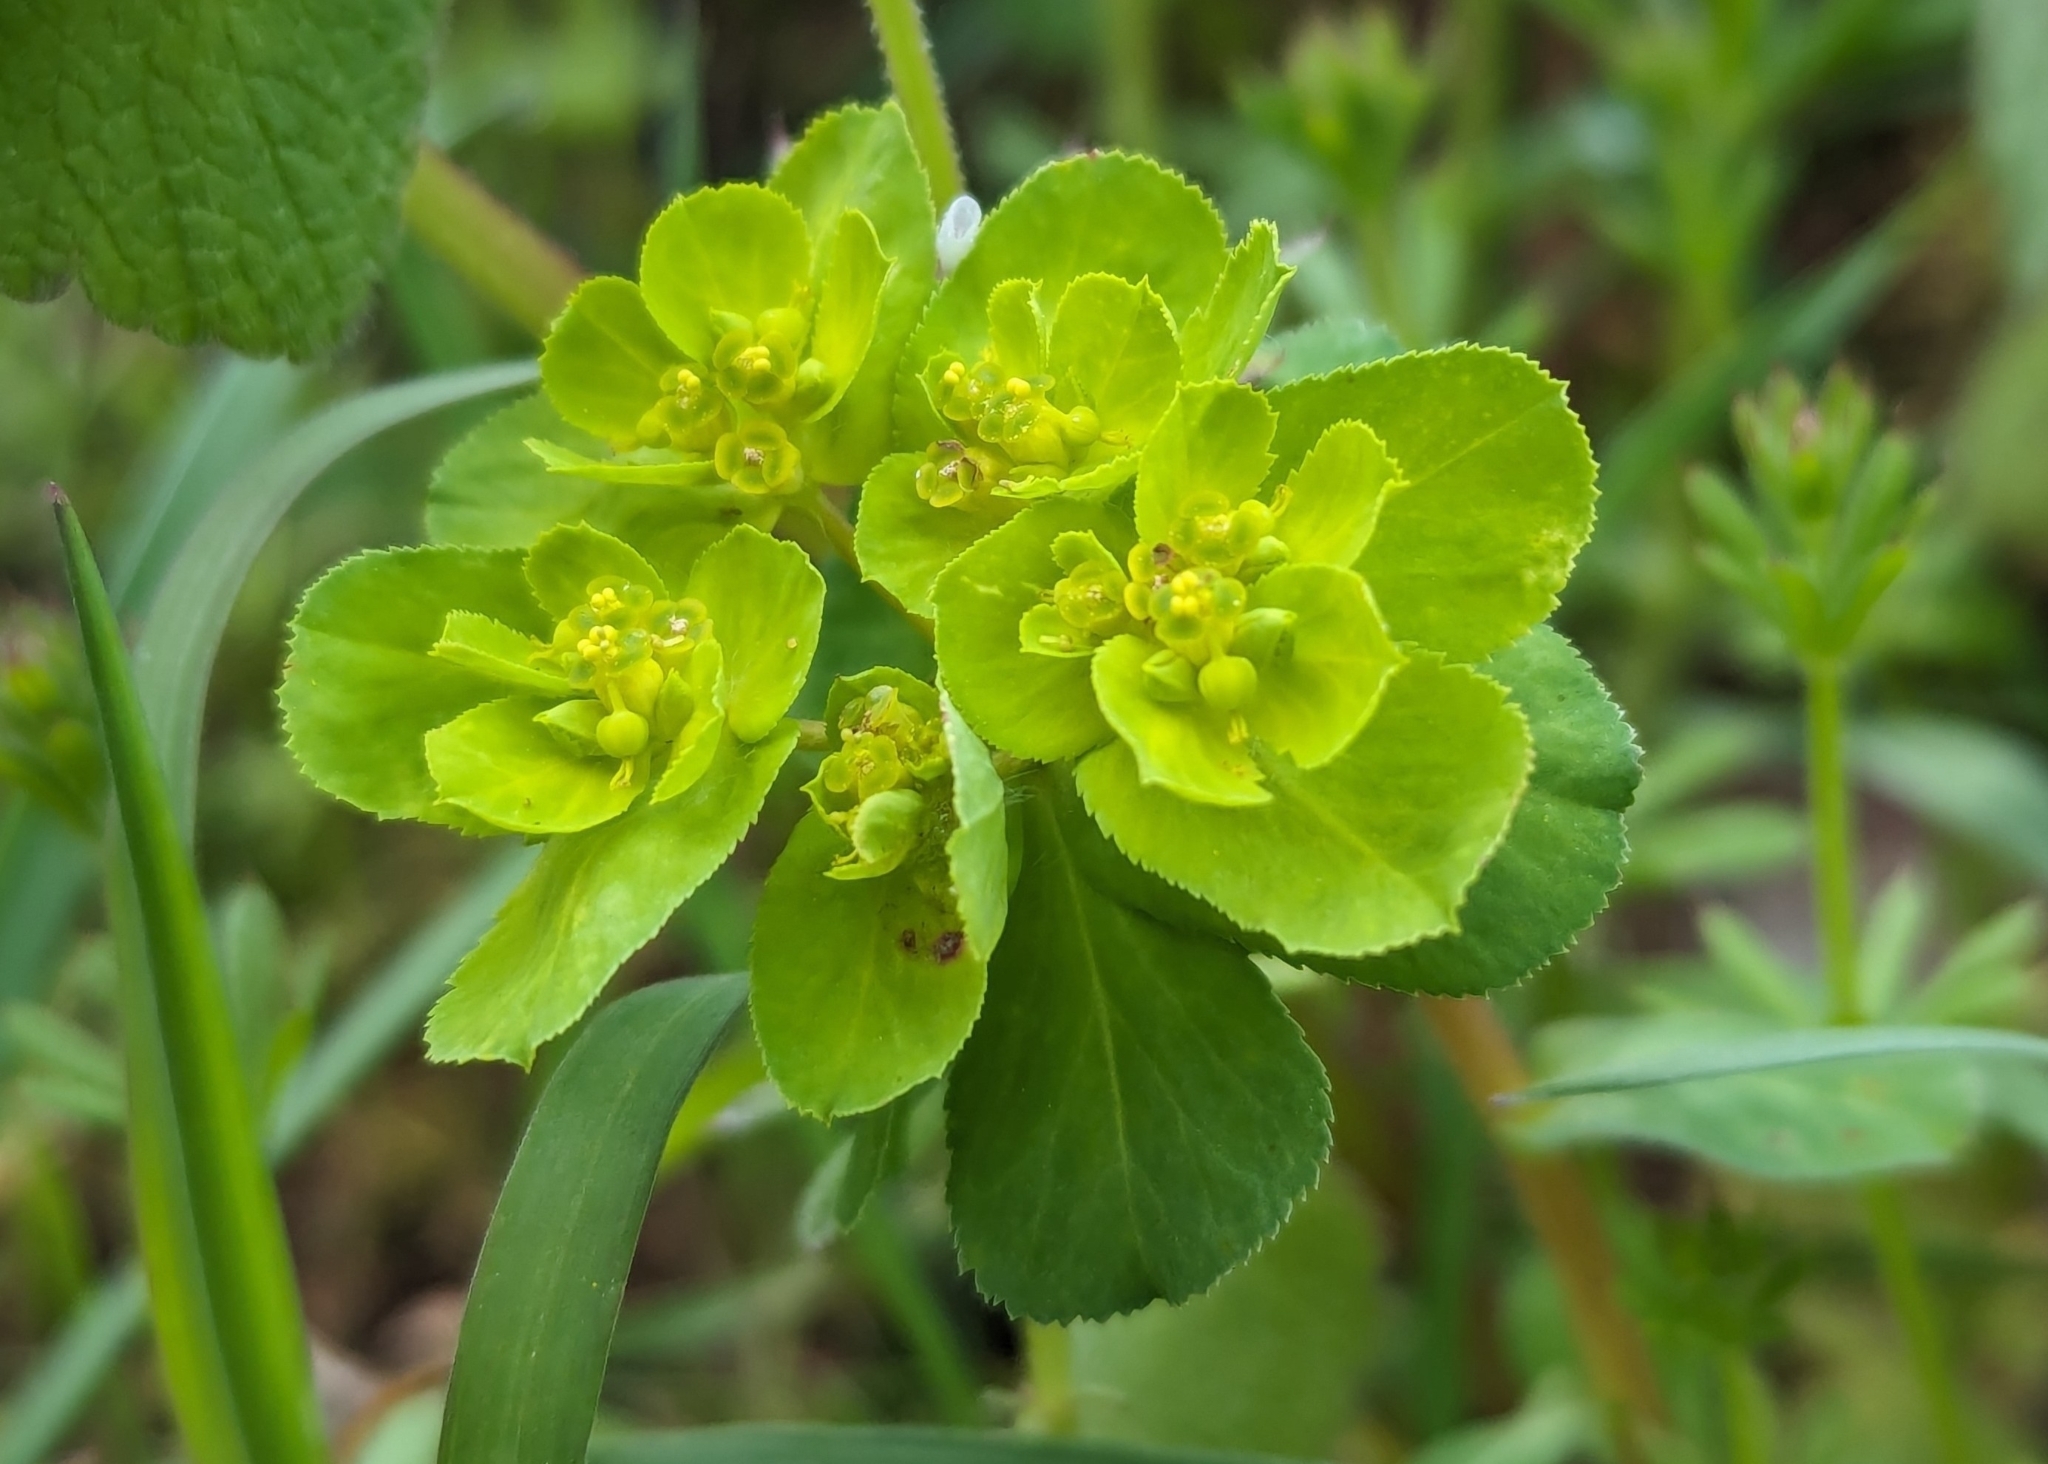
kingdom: Plantae
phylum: Tracheophyta
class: Magnoliopsida
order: Malpighiales
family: Euphorbiaceae
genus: Euphorbia
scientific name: Euphorbia helioscopia
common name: Sun spurge
